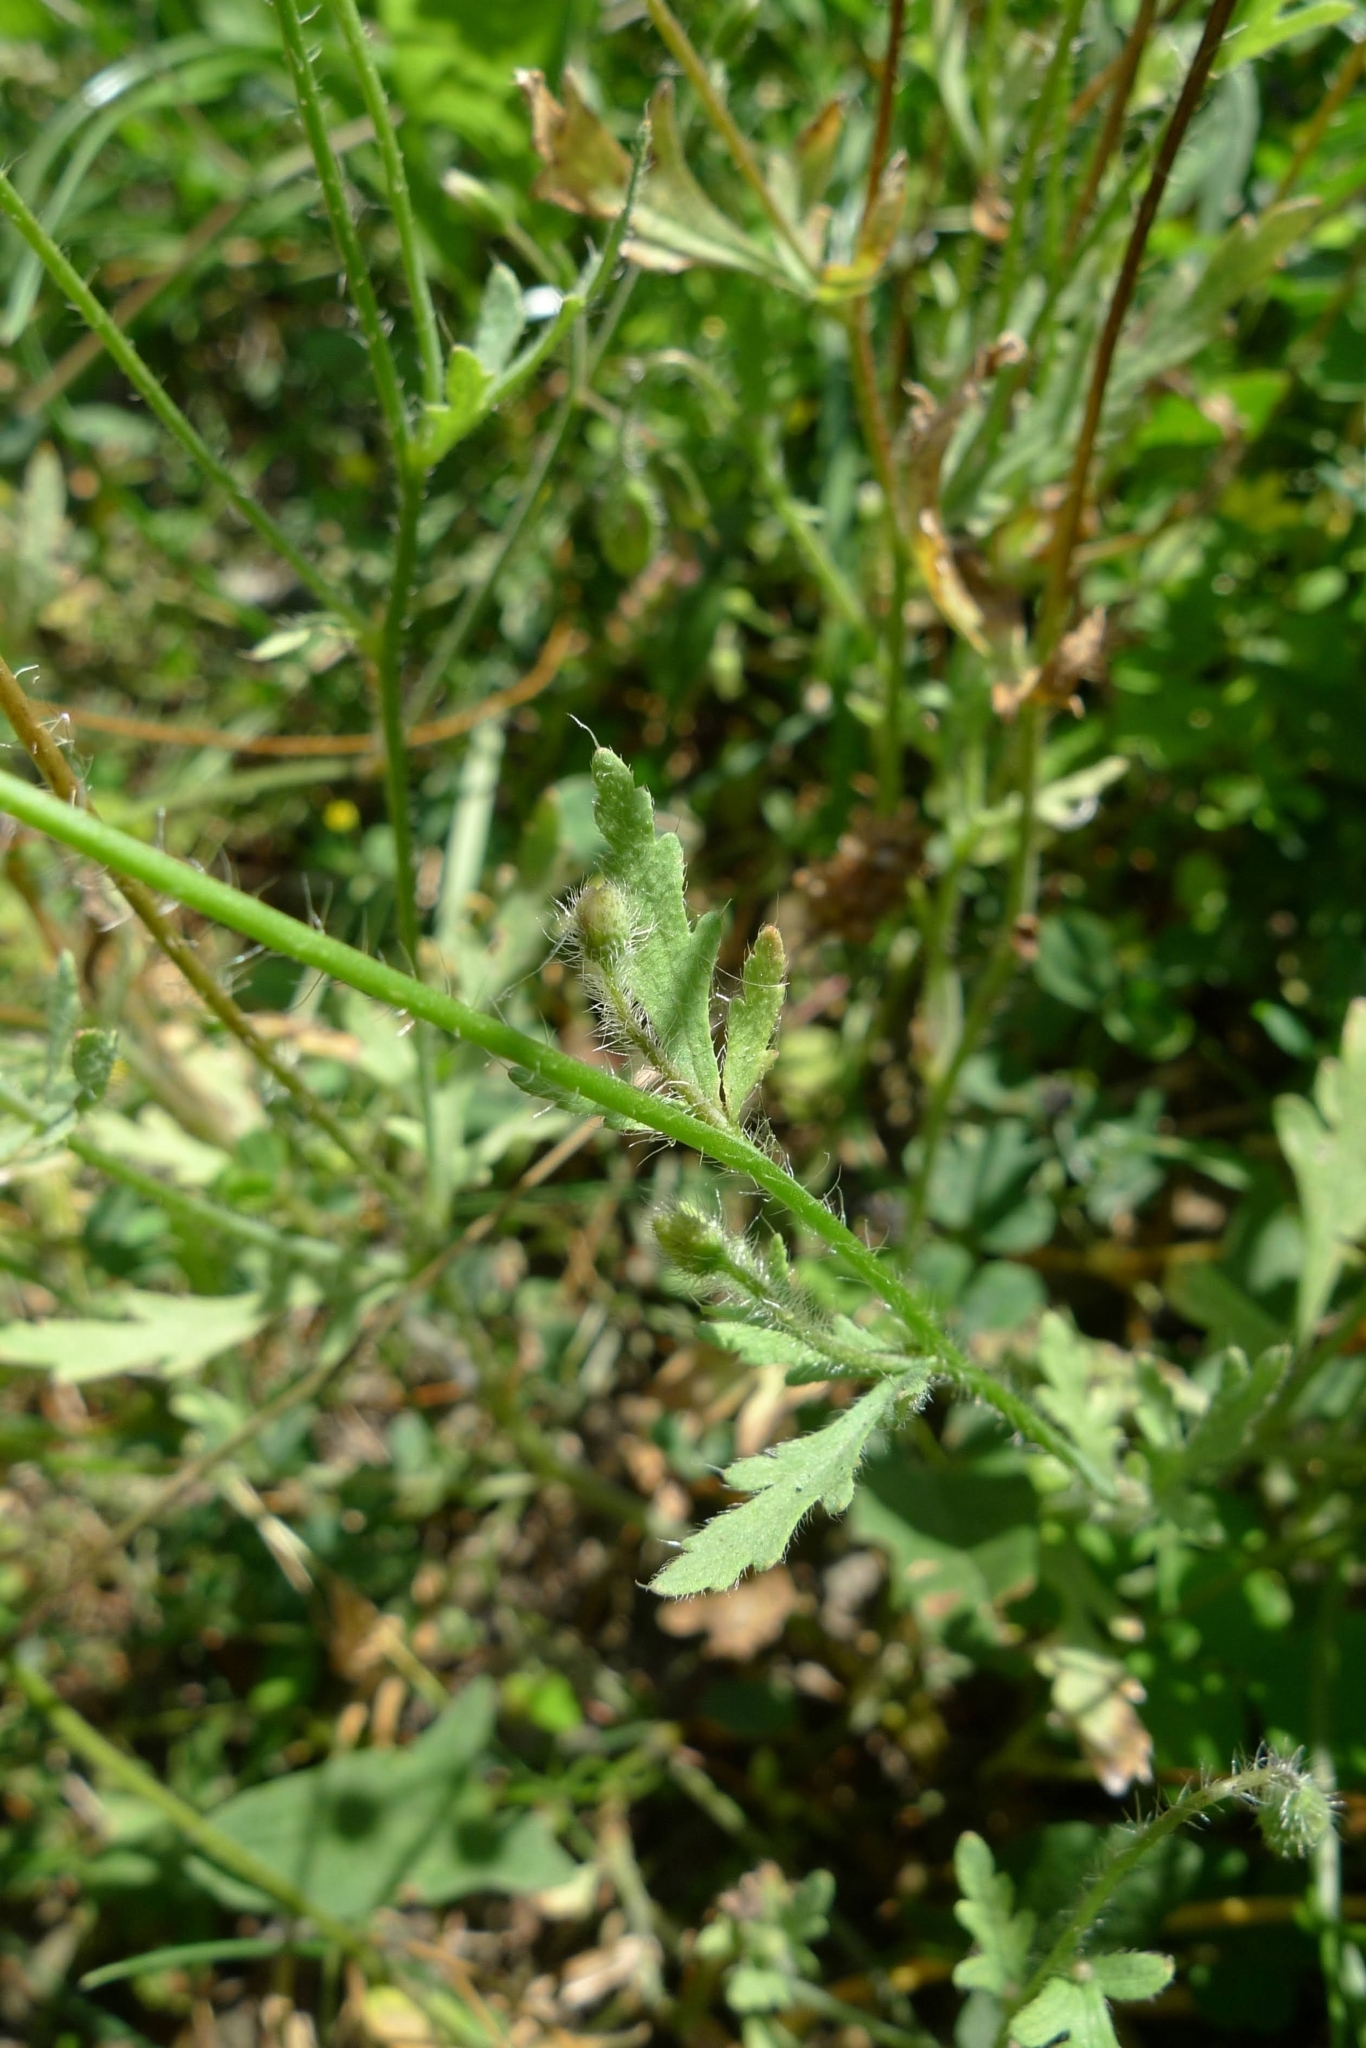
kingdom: Plantae
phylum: Tracheophyta
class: Magnoliopsida
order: Ranunculales
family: Papaveraceae
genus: Papaver
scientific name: Papaver rhoeas
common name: Corn poppy
